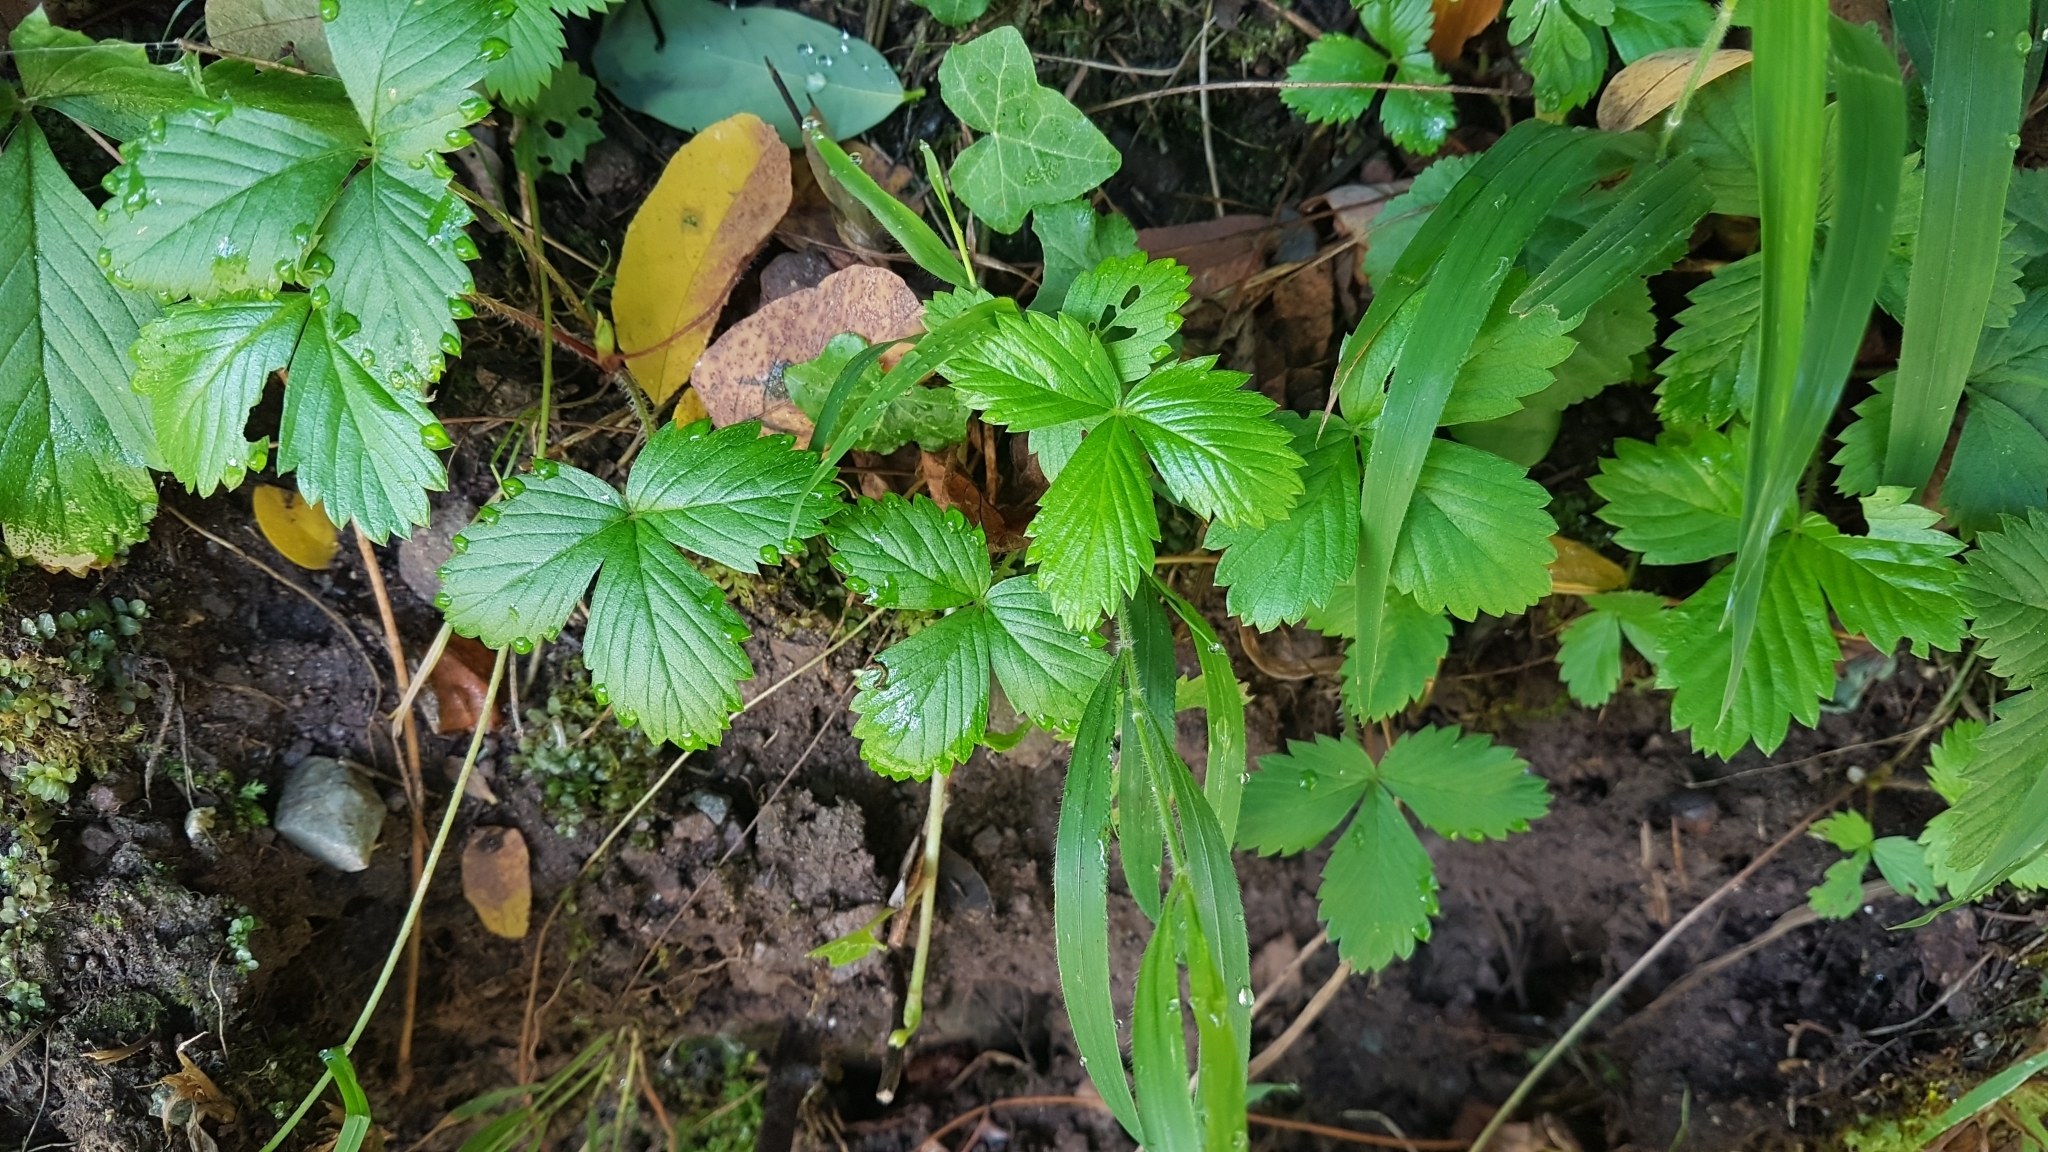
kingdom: Plantae
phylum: Tracheophyta
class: Magnoliopsida
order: Rosales
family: Rosaceae
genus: Fragaria
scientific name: Fragaria vesca
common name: Wild strawberry
